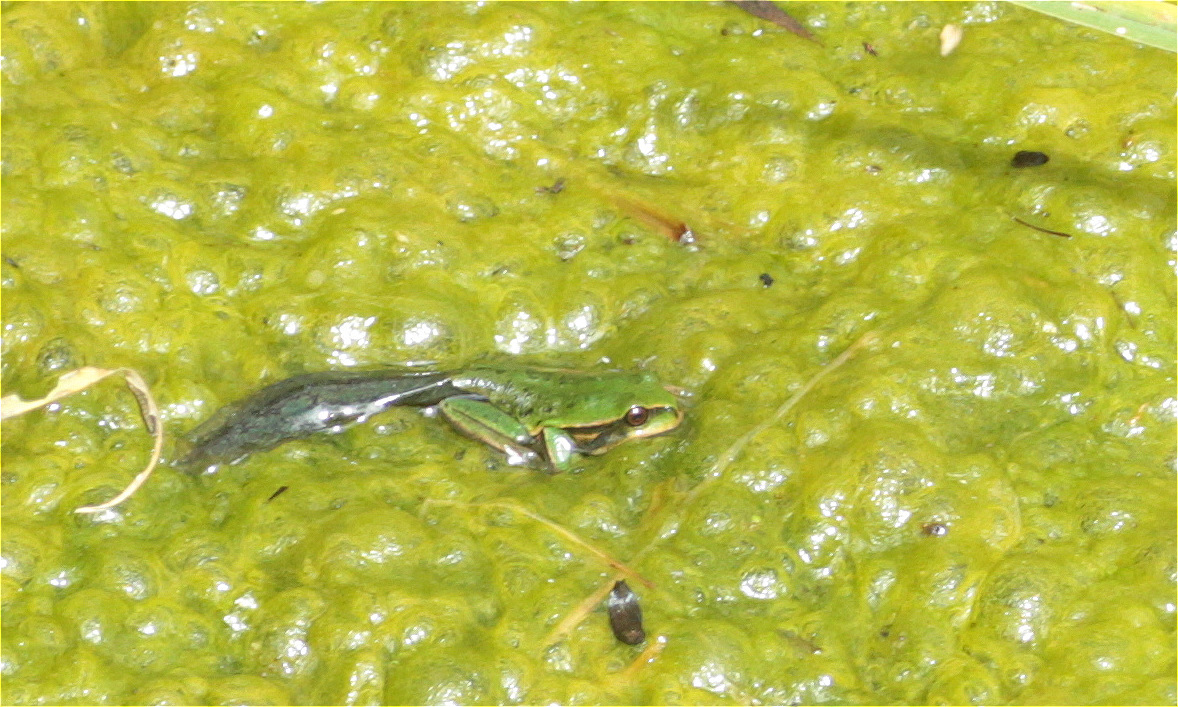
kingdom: Animalia
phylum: Chordata
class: Amphibia
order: Anura
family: Hemiphractidae
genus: Gastrotheca
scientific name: Gastrotheca cuencana
